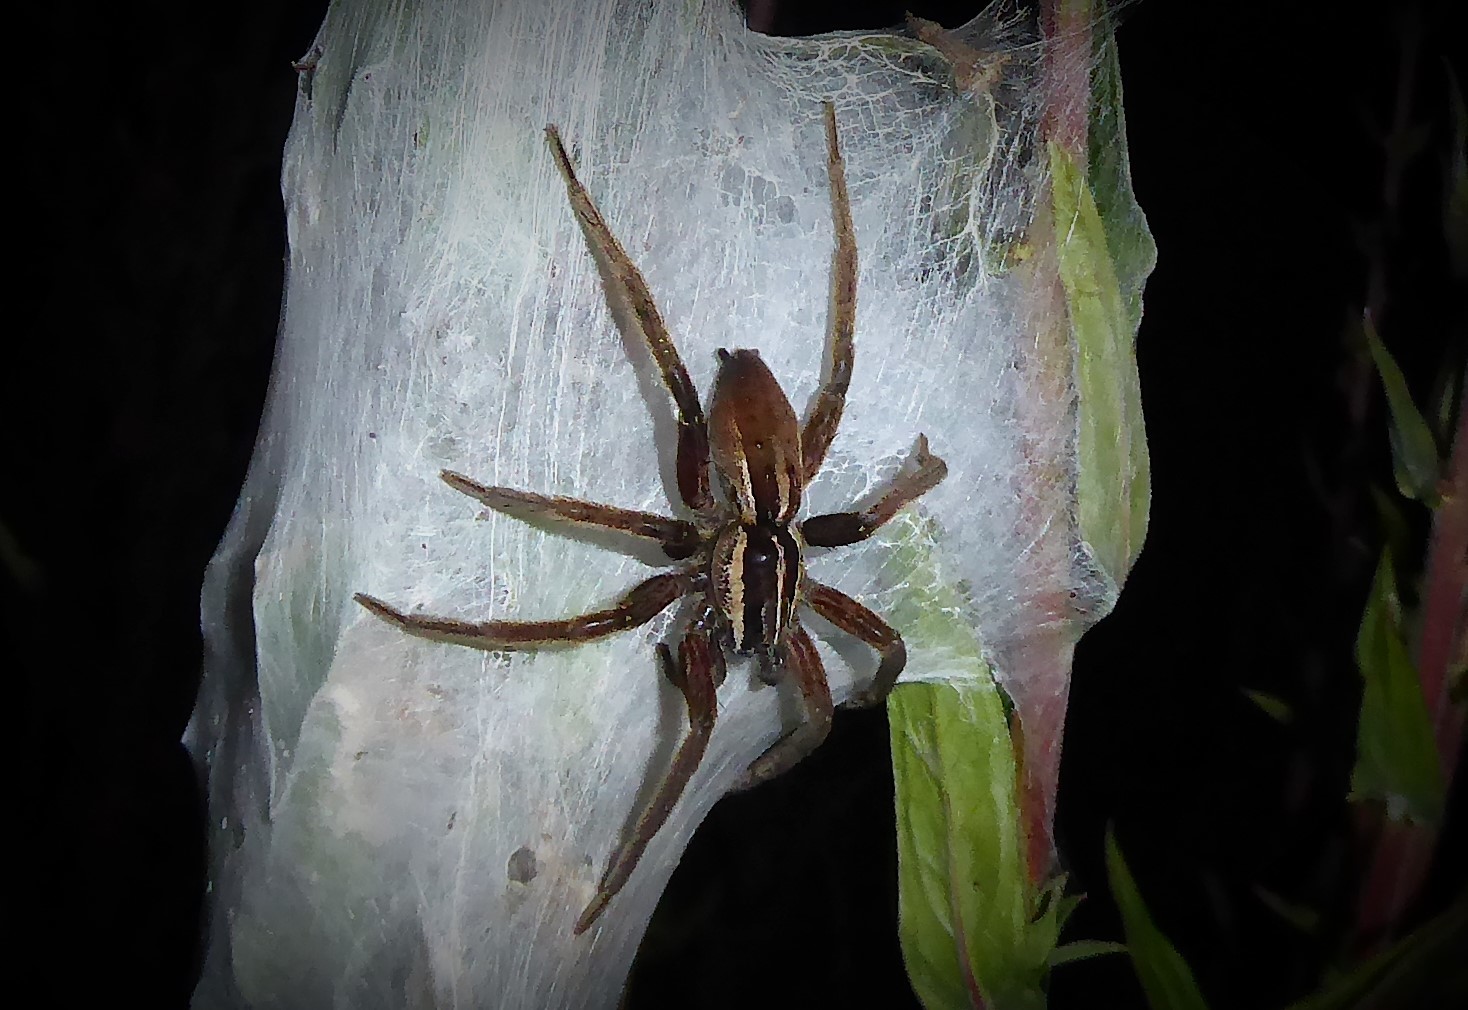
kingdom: Animalia
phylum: Arthropoda
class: Arachnida
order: Araneae
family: Pisauridae
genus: Dolomedes
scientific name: Dolomedes minor
